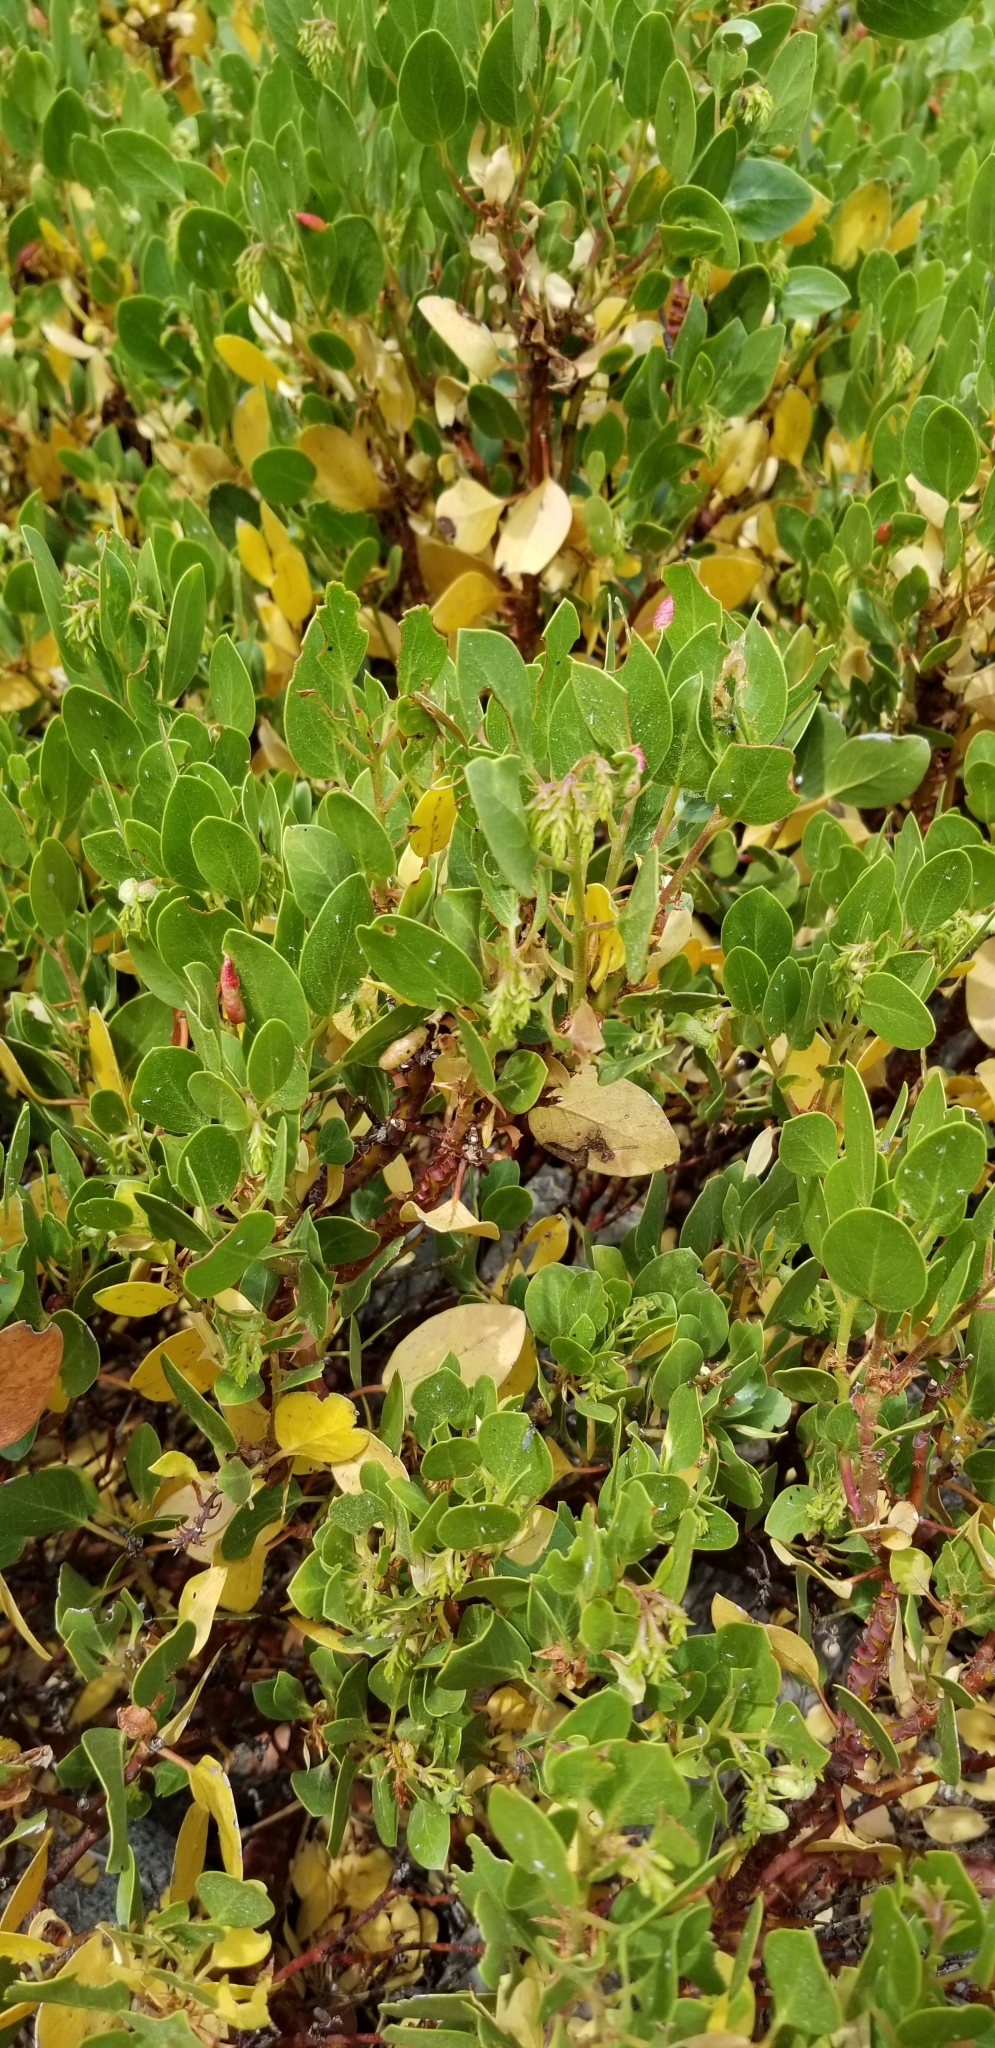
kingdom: Plantae
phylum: Tracheophyta
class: Magnoliopsida
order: Ericales
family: Ericaceae
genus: Arctostaphylos
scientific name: Arctostaphylos patula
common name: Green-leaf manzanita
